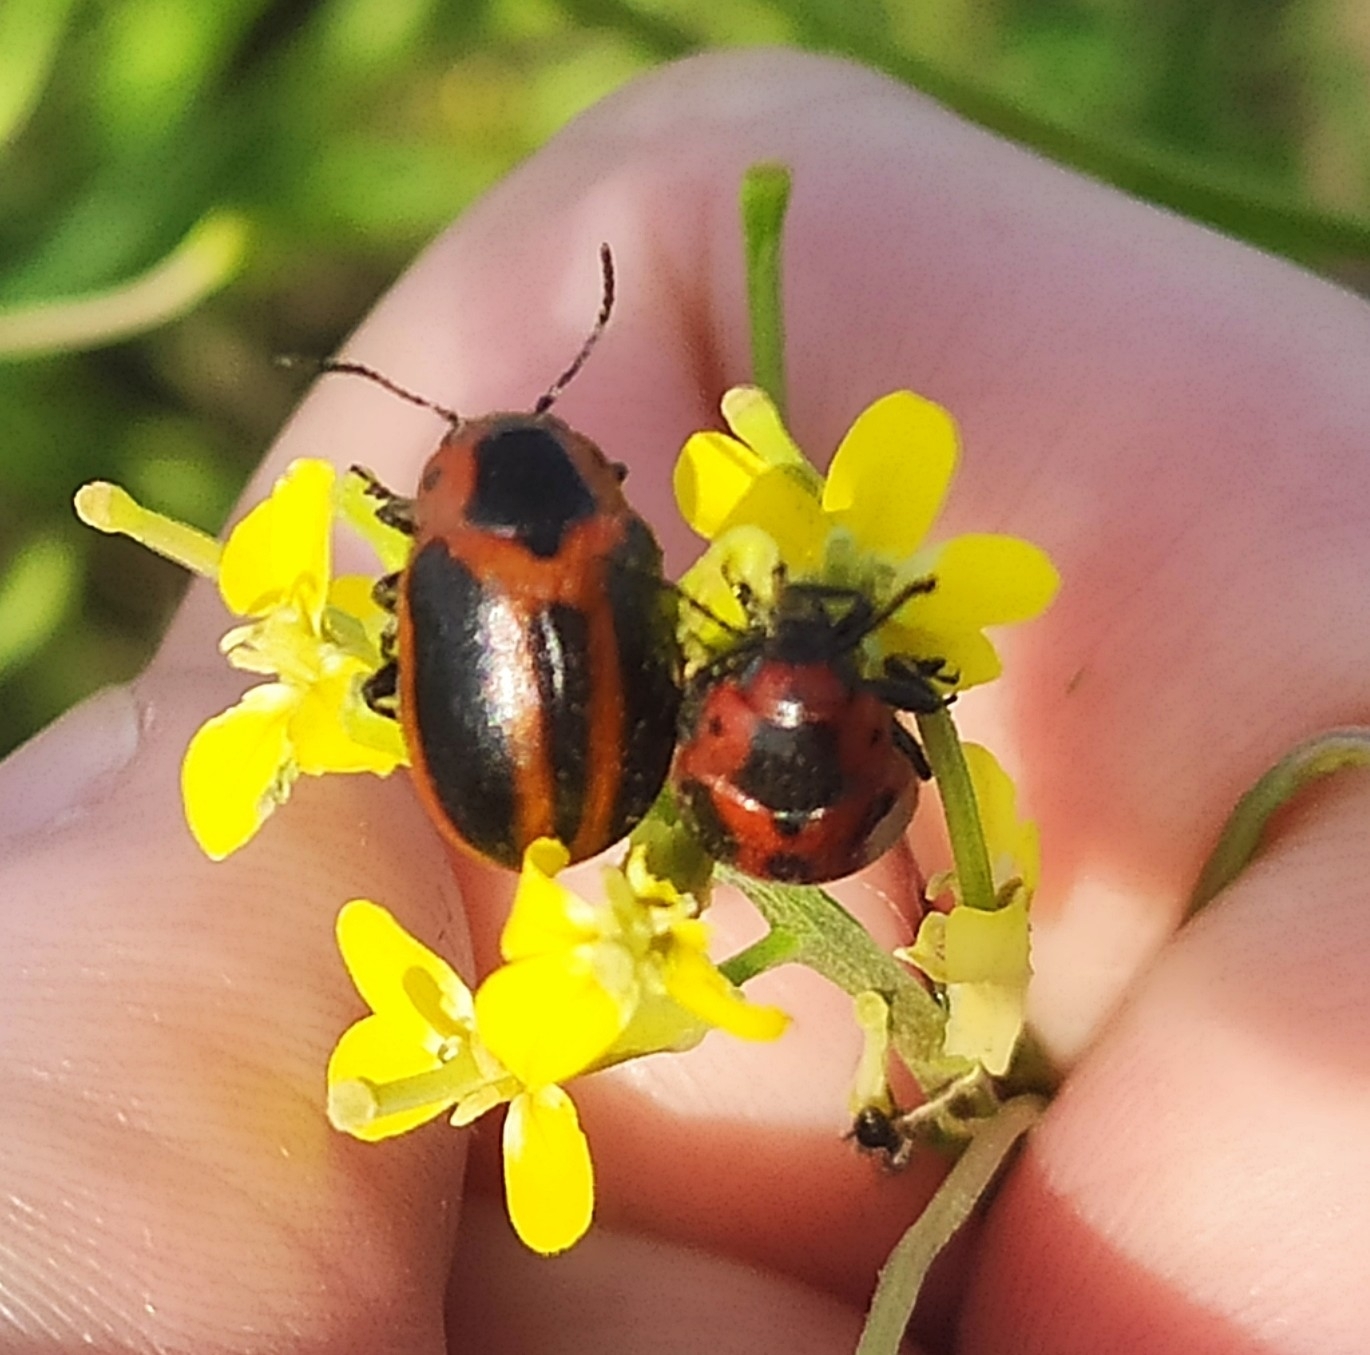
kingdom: Animalia
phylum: Arthropoda
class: Insecta
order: Coleoptera
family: Chrysomelidae
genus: Entomoscelis
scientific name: Entomoscelis adonidis
